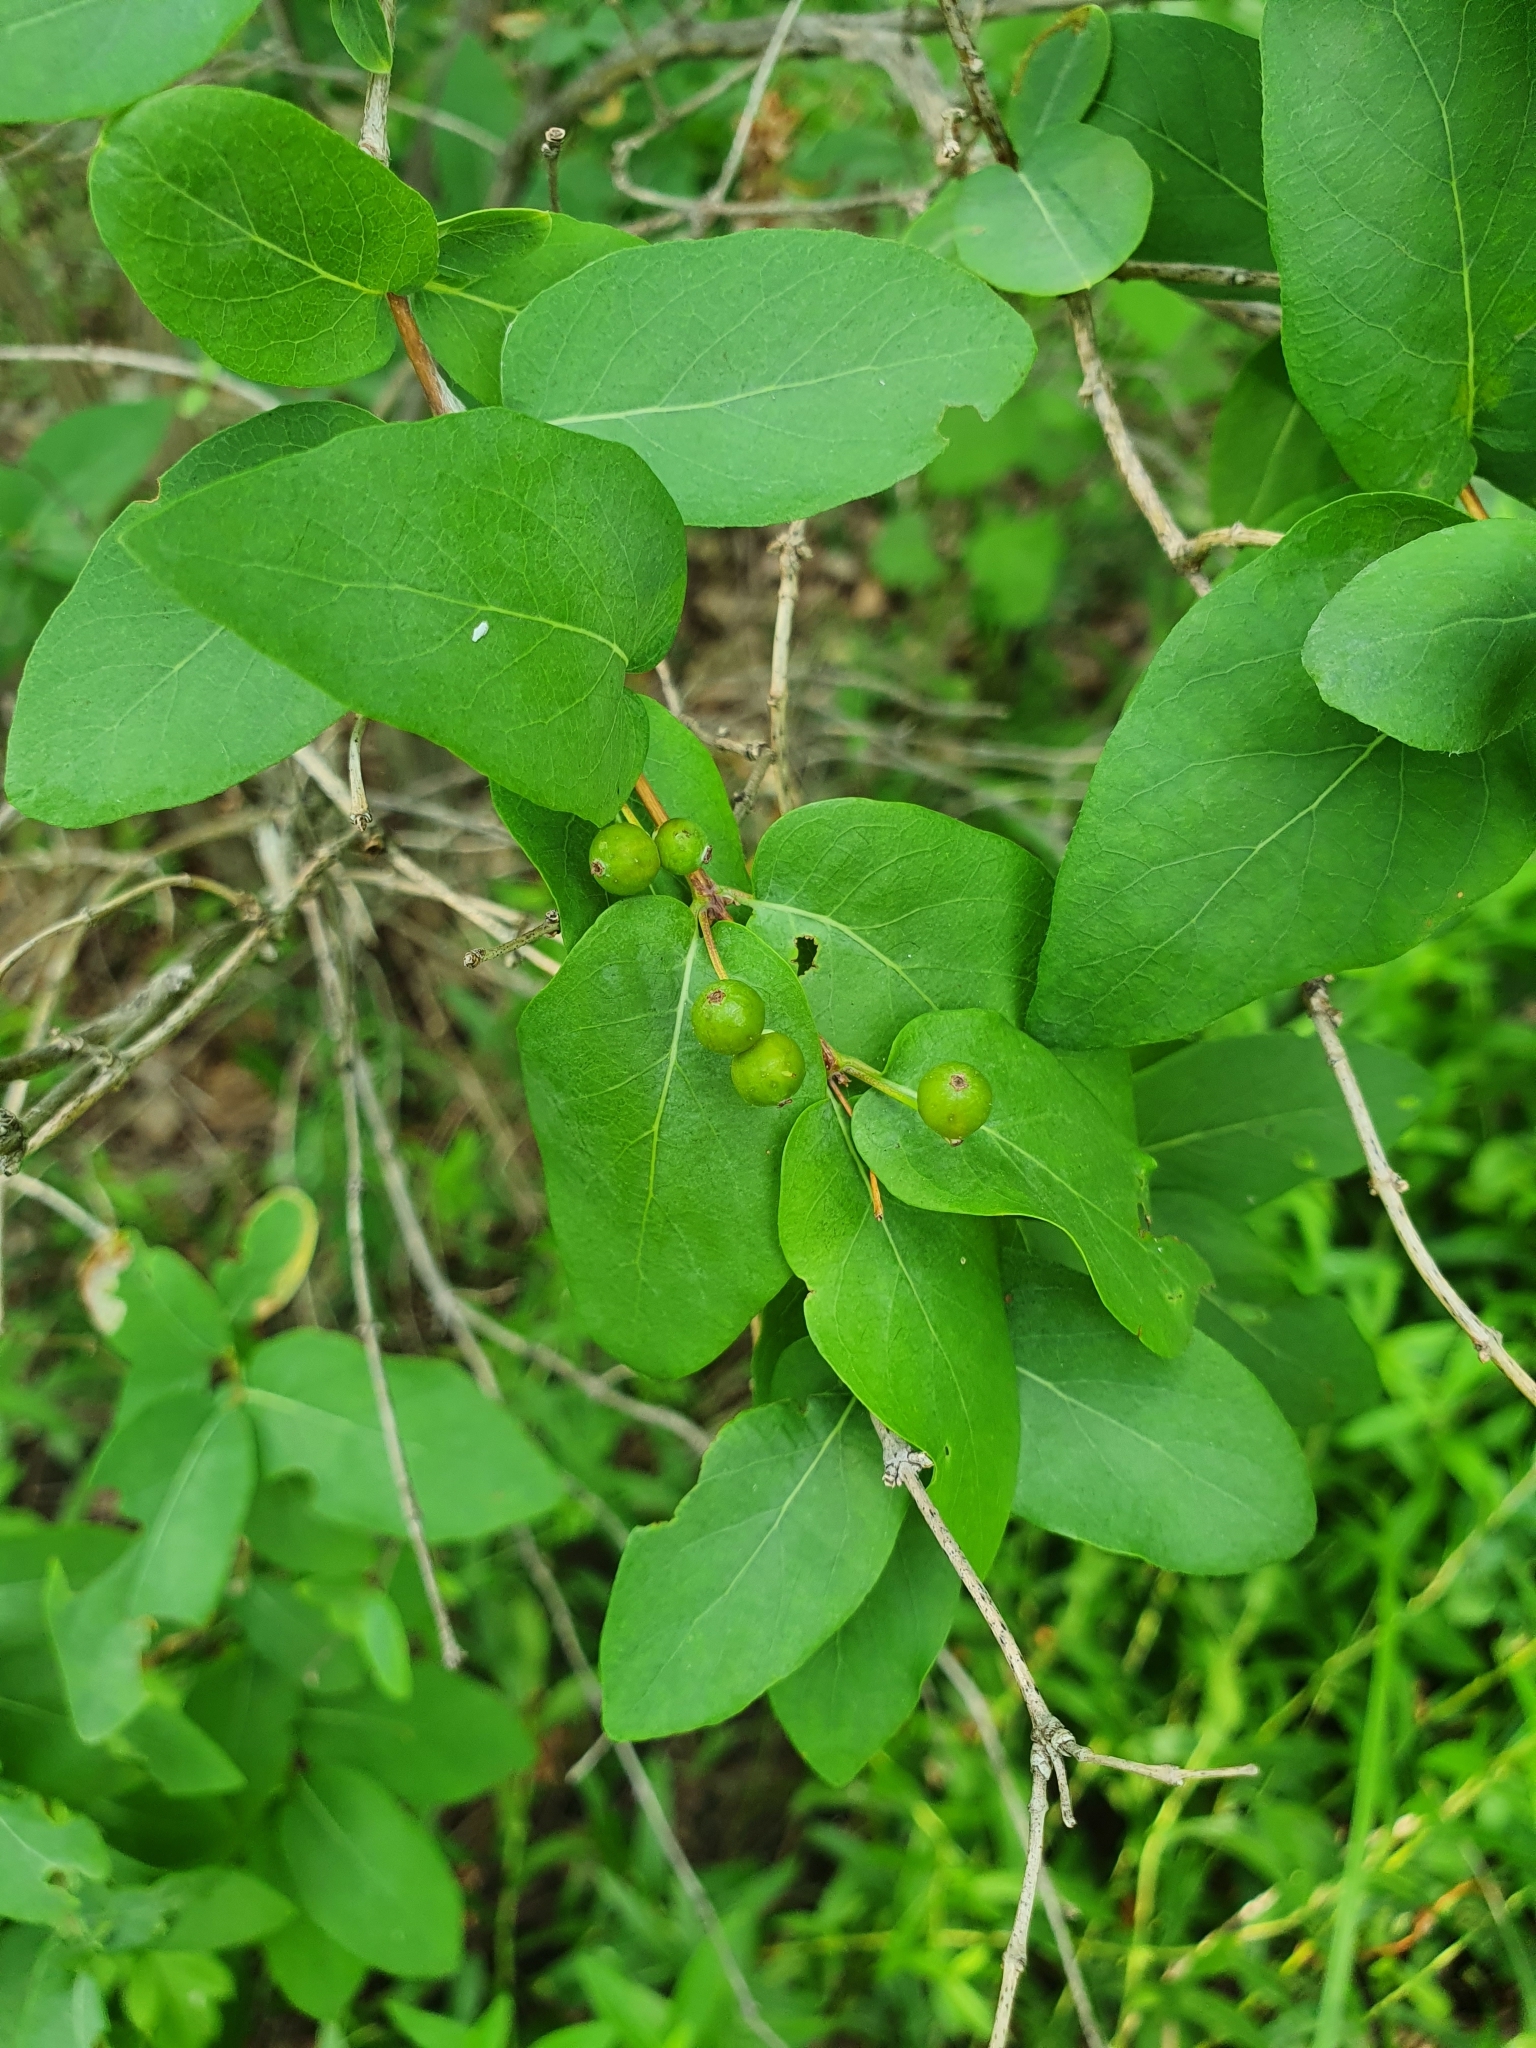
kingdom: Plantae
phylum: Tracheophyta
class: Magnoliopsida
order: Dipsacales
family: Caprifoliaceae
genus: Lonicera
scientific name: Lonicera tatarica
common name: Tatarian honeysuckle
